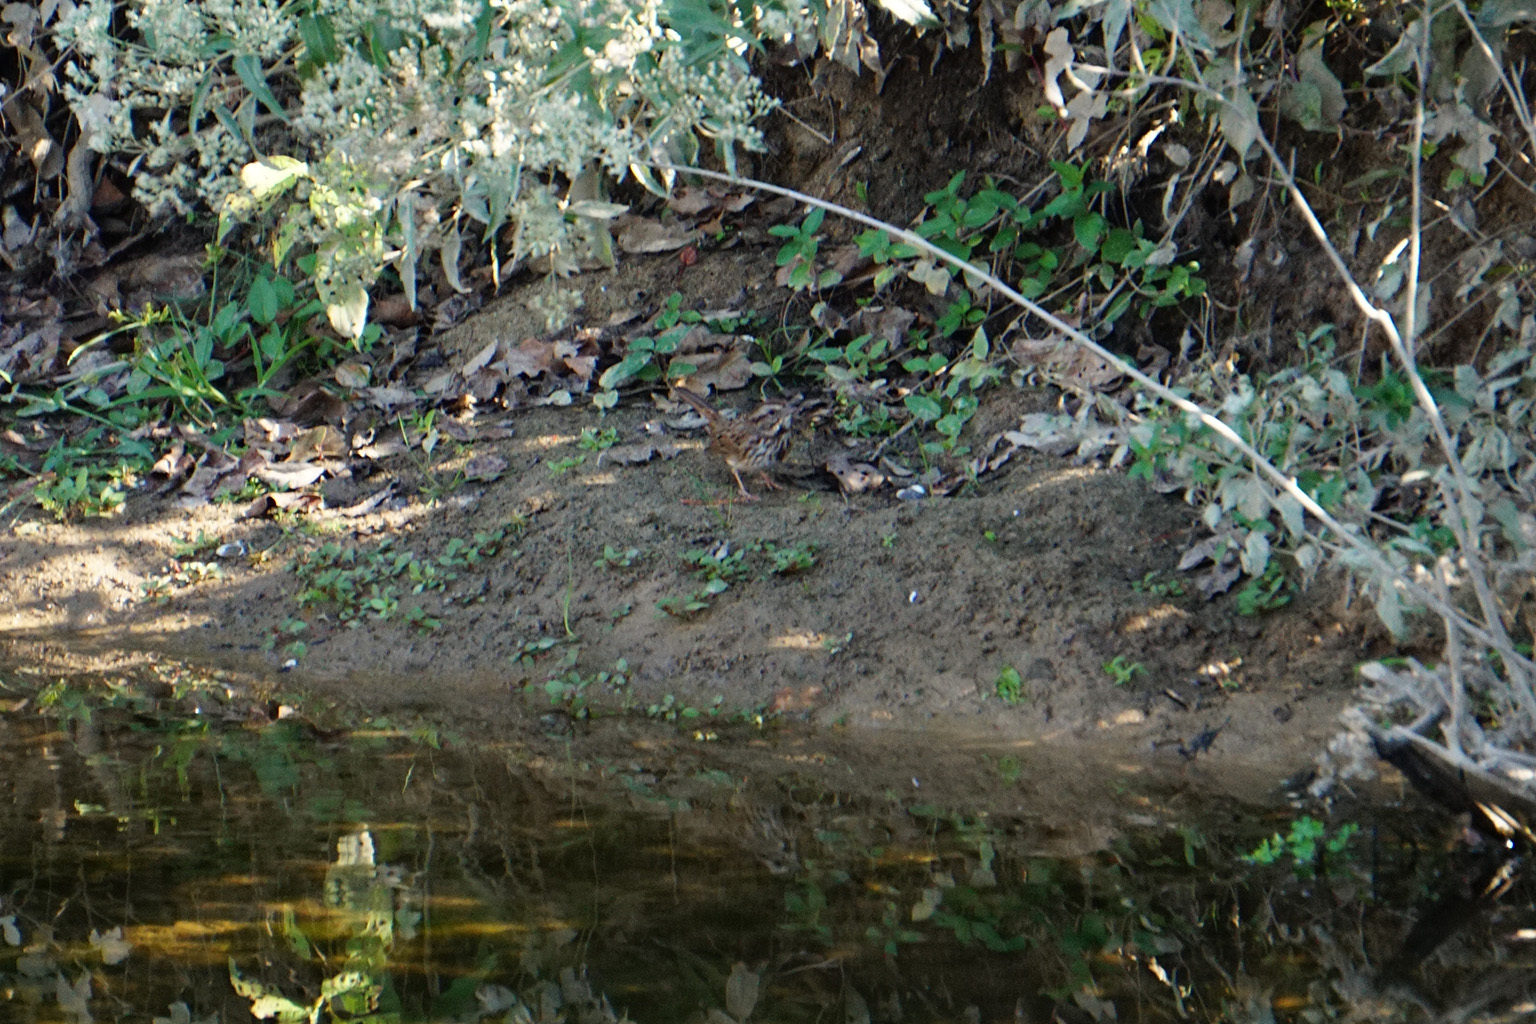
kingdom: Animalia
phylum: Chordata
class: Aves
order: Passeriformes
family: Passerellidae
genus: Melospiza
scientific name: Melospiza melodia
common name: Song sparrow
